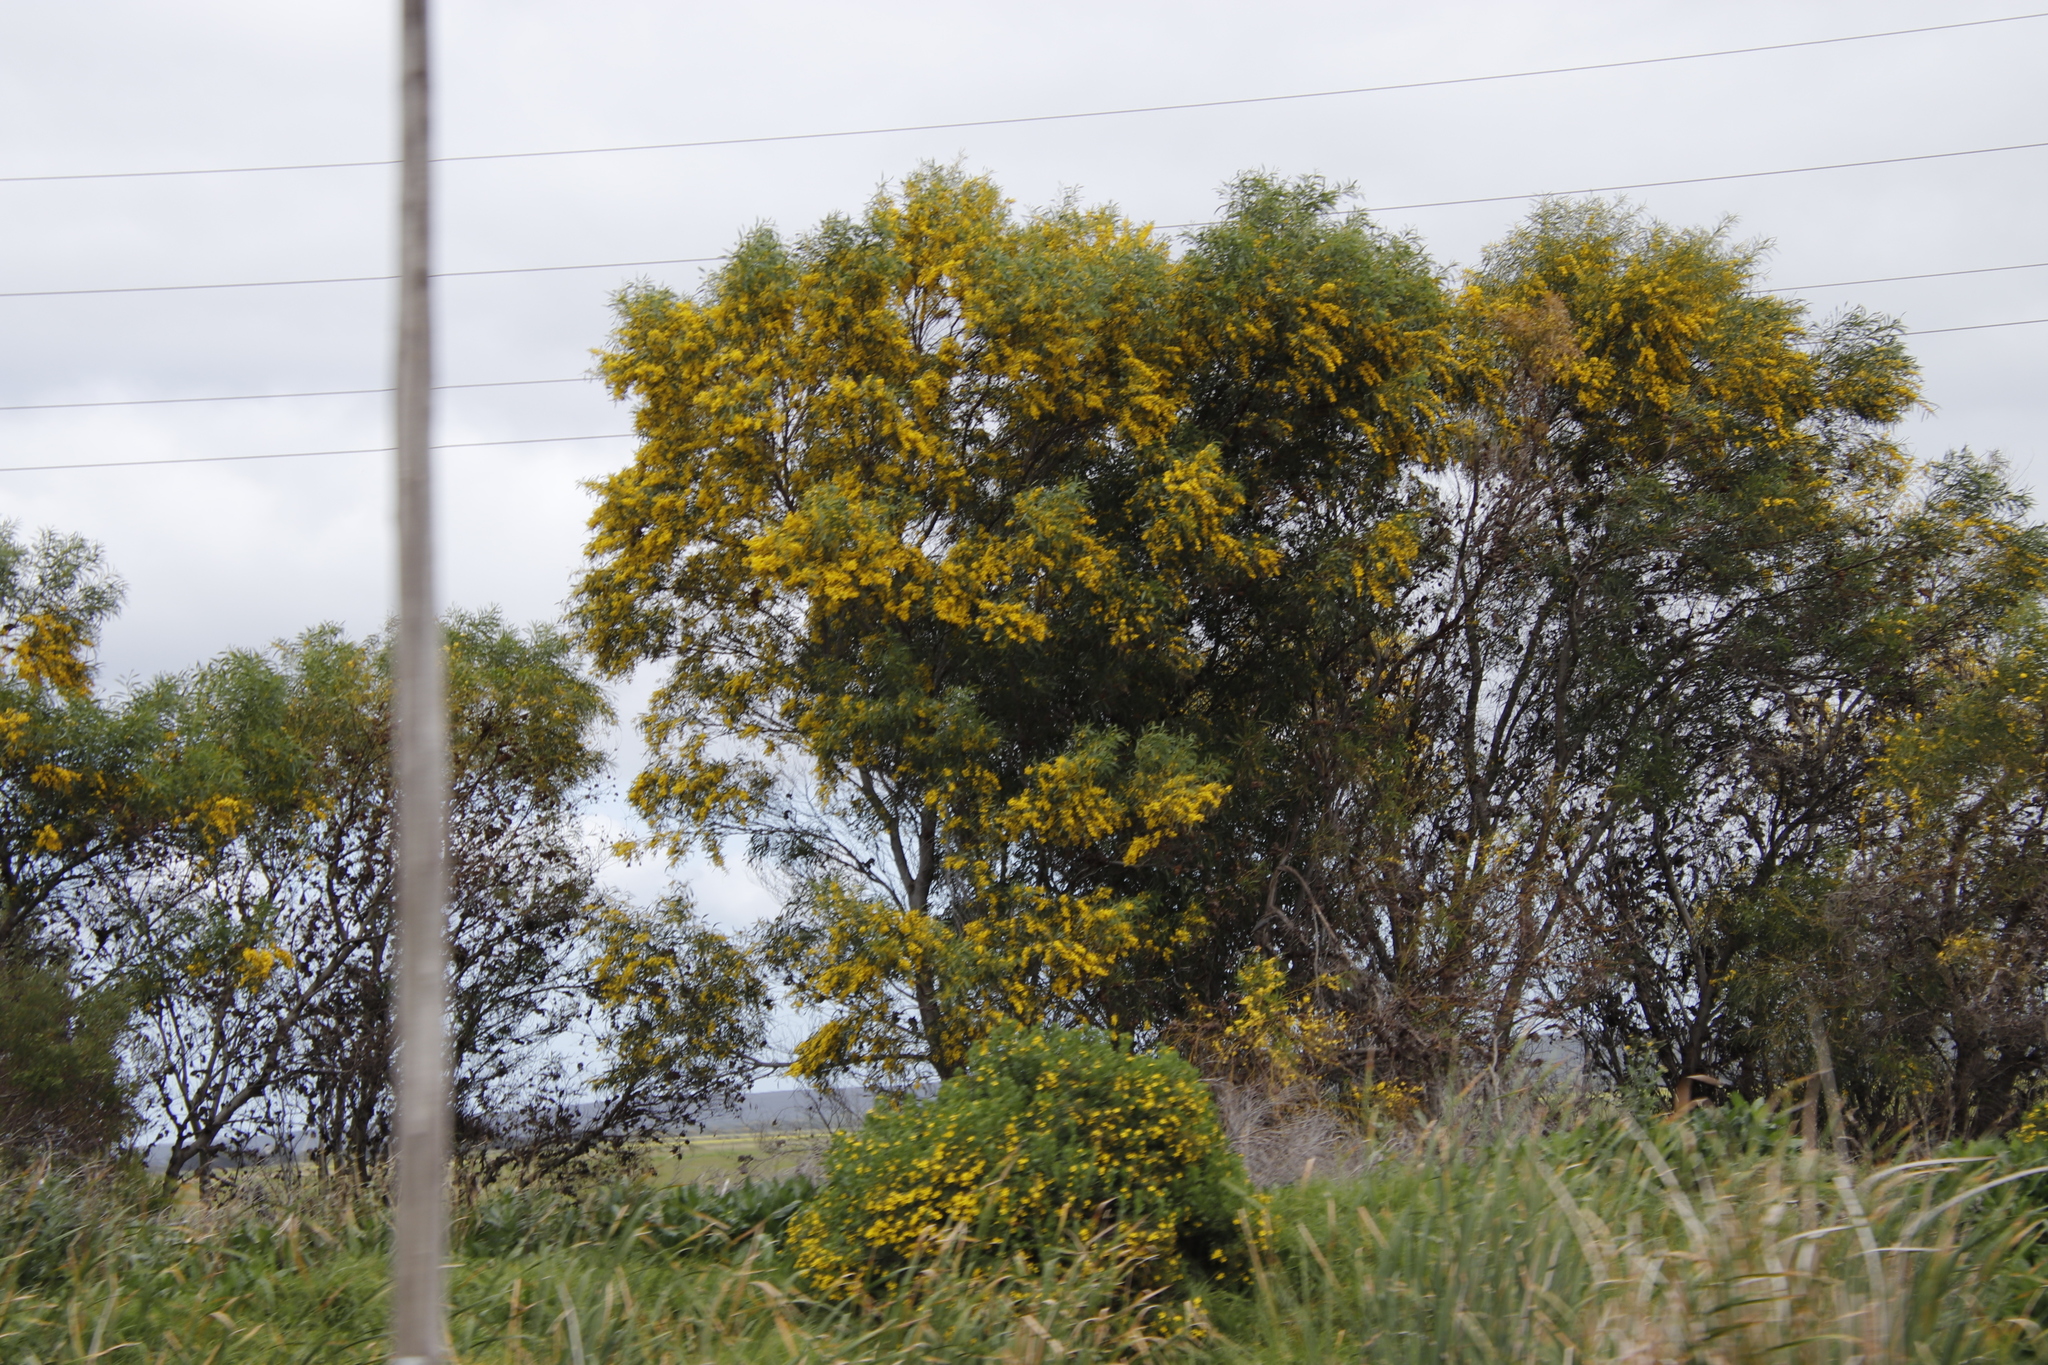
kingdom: Plantae
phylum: Tracheophyta
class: Magnoliopsida
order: Fabales
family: Fabaceae
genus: Acacia
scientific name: Acacia saligna
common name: Orange wattle
